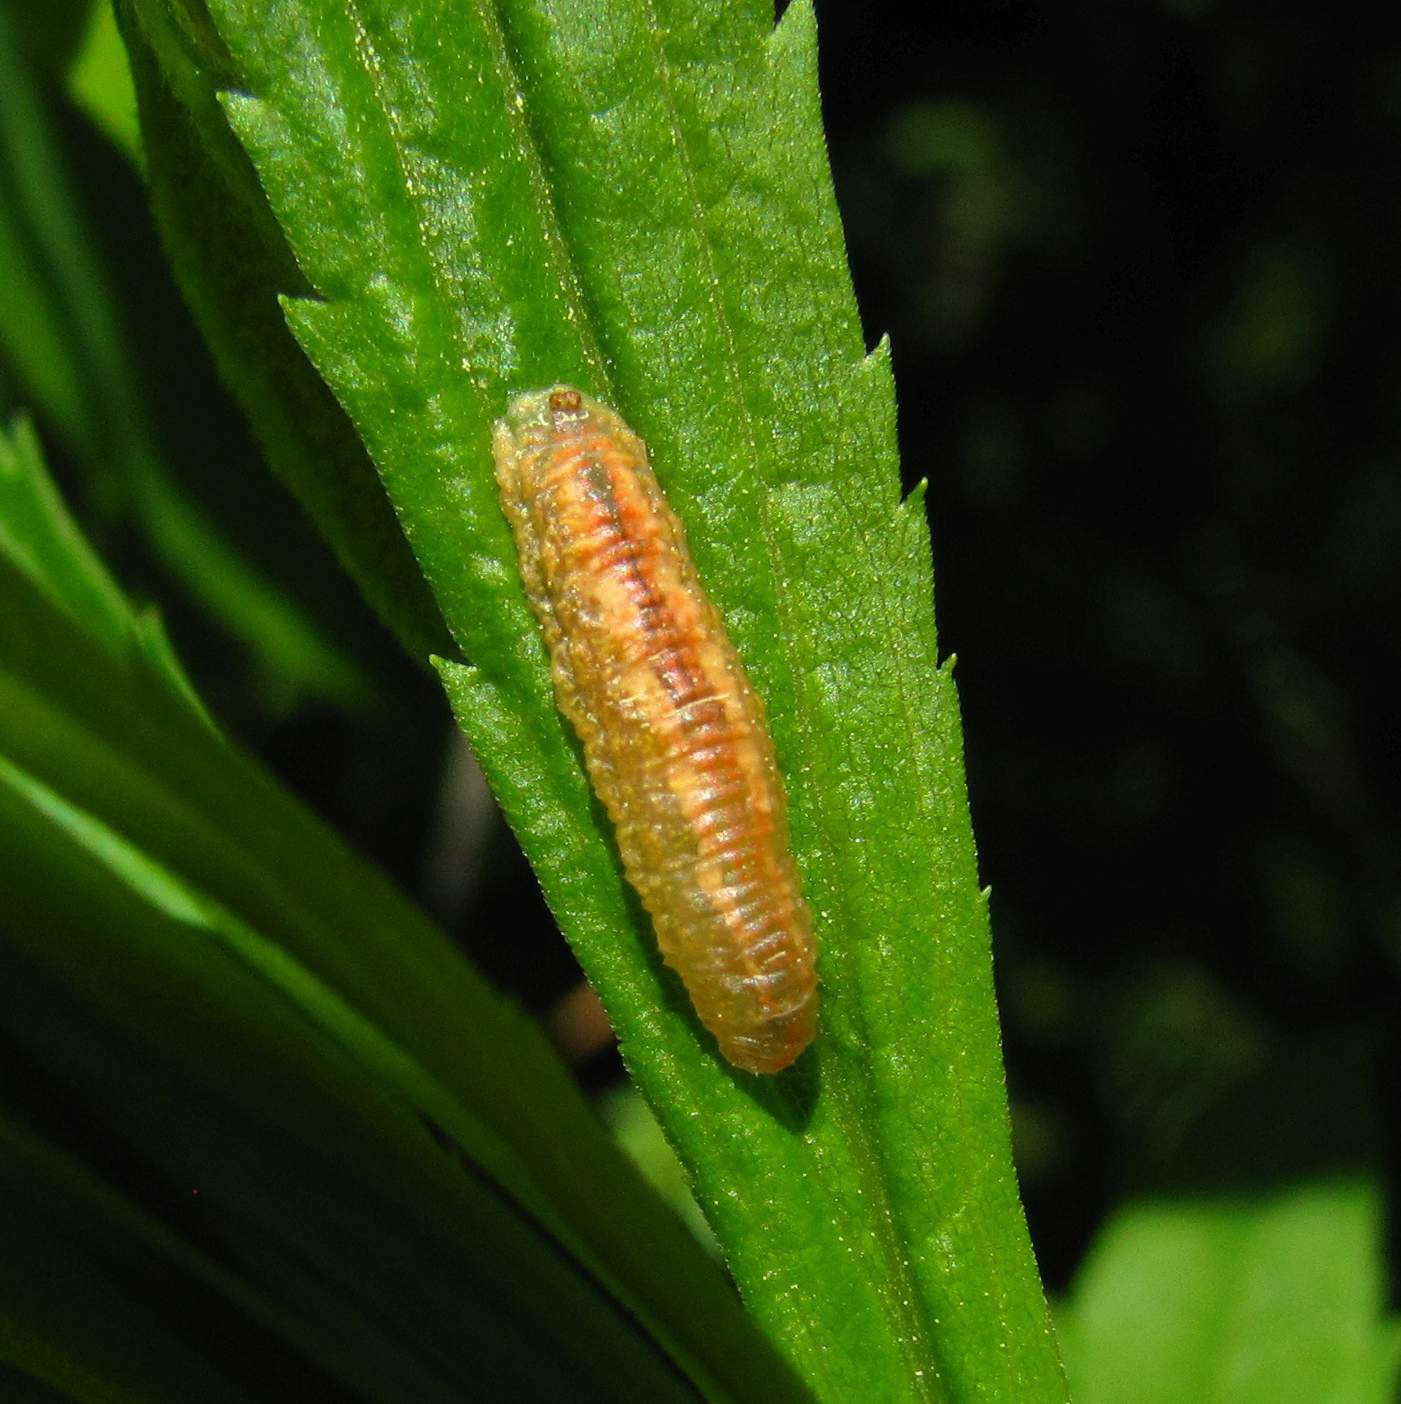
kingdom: Animalia
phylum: Arthropoda
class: Insecta
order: Diptera
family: Syrphidae
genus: Syrphus
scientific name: Syrphus
